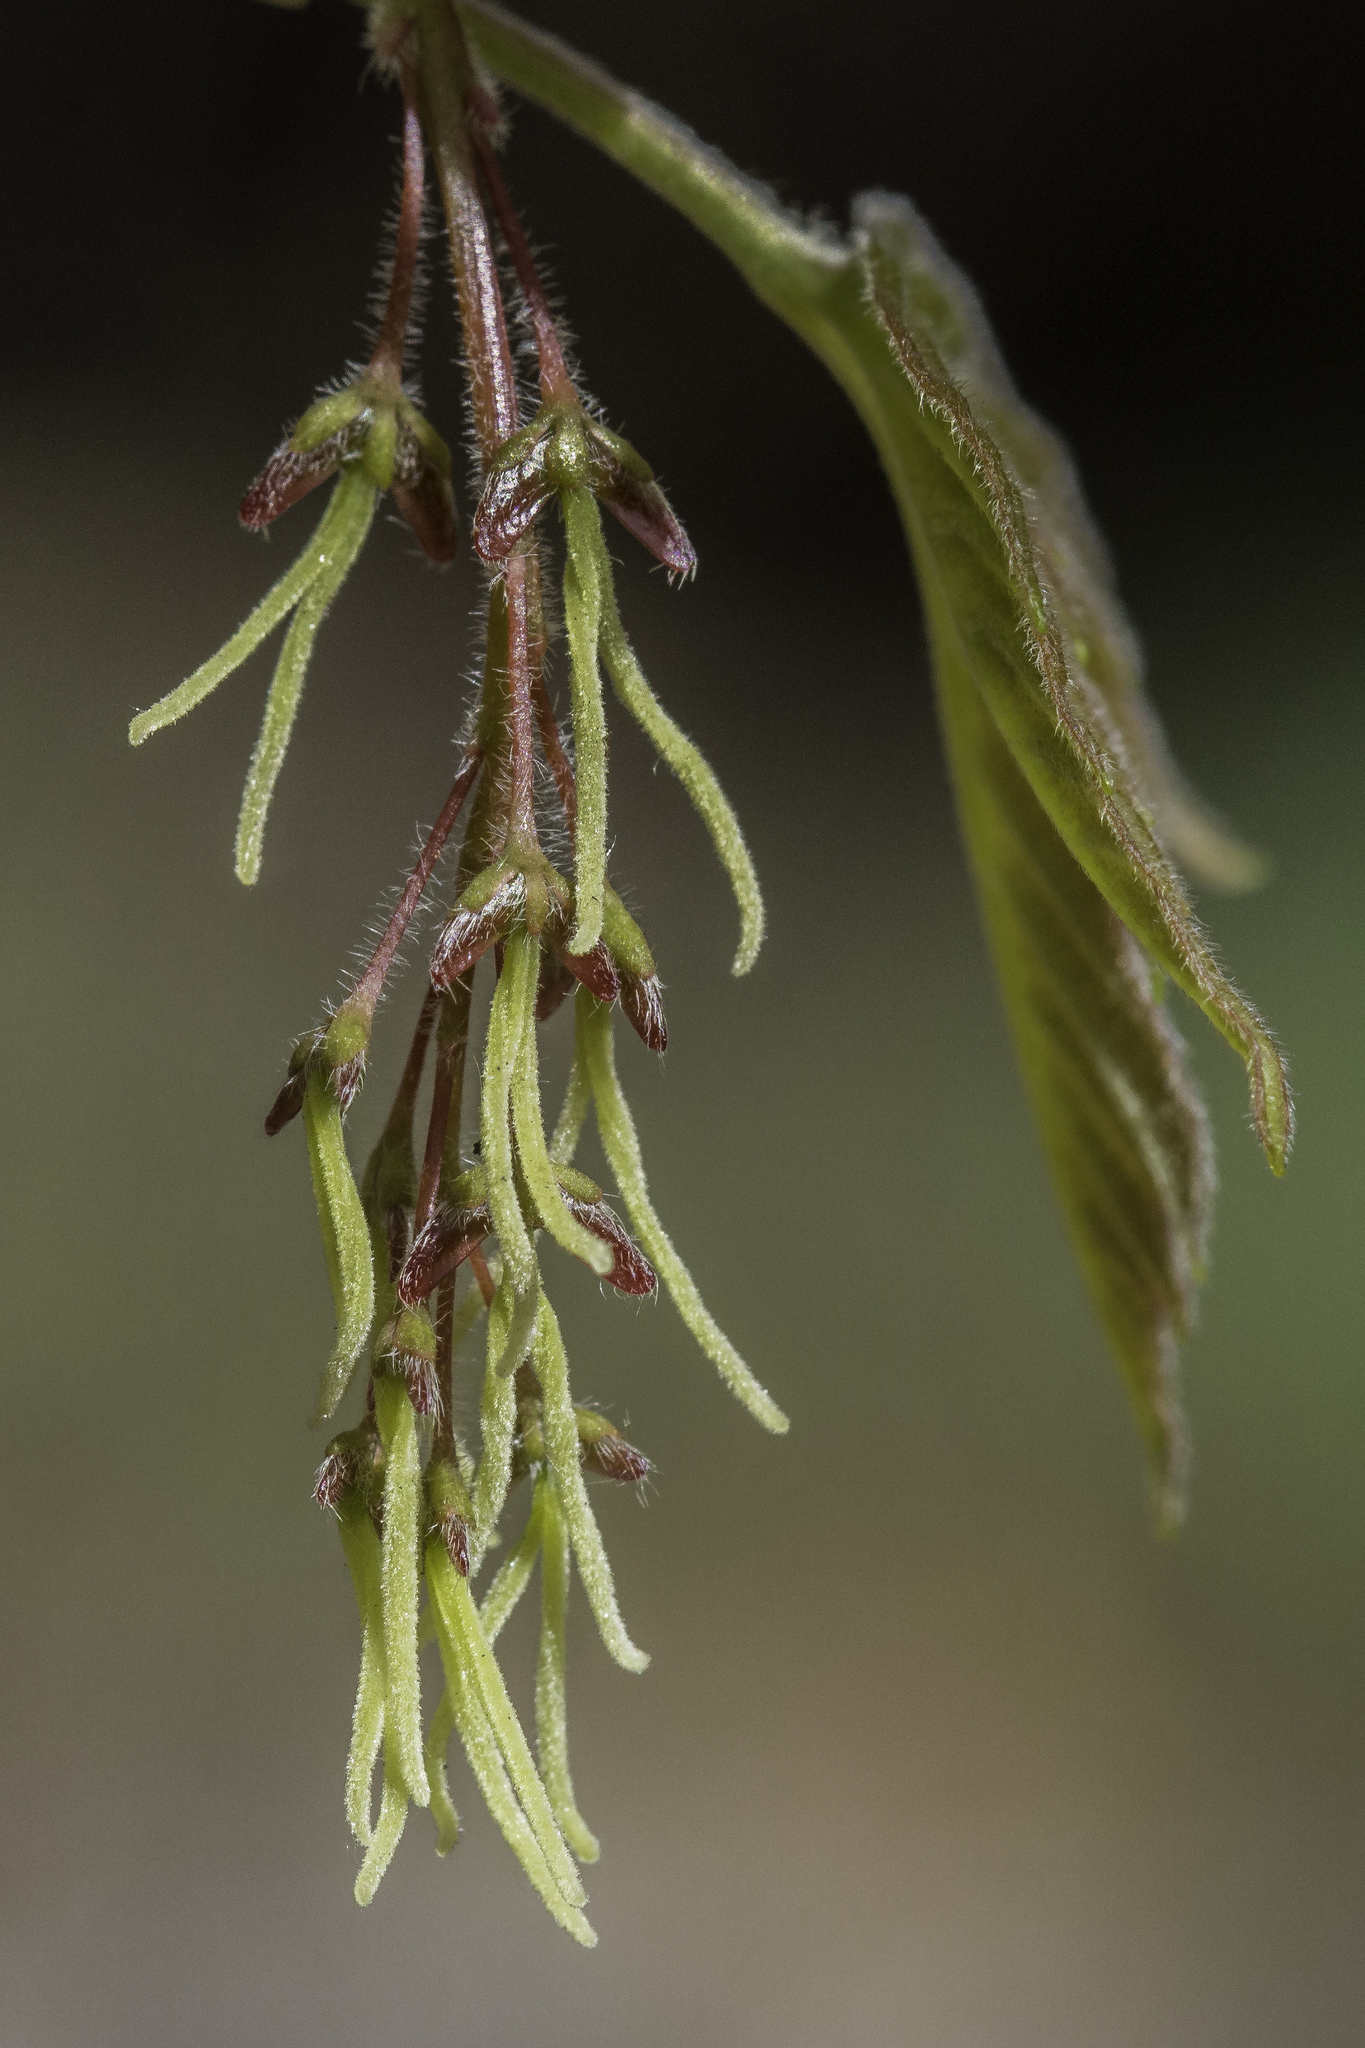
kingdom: Plantae
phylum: Tracheophyta
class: Magnoliopsida
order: Sapindales
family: Sapindaceae
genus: Acer
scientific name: Acer negundo
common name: Ashleaf maple
